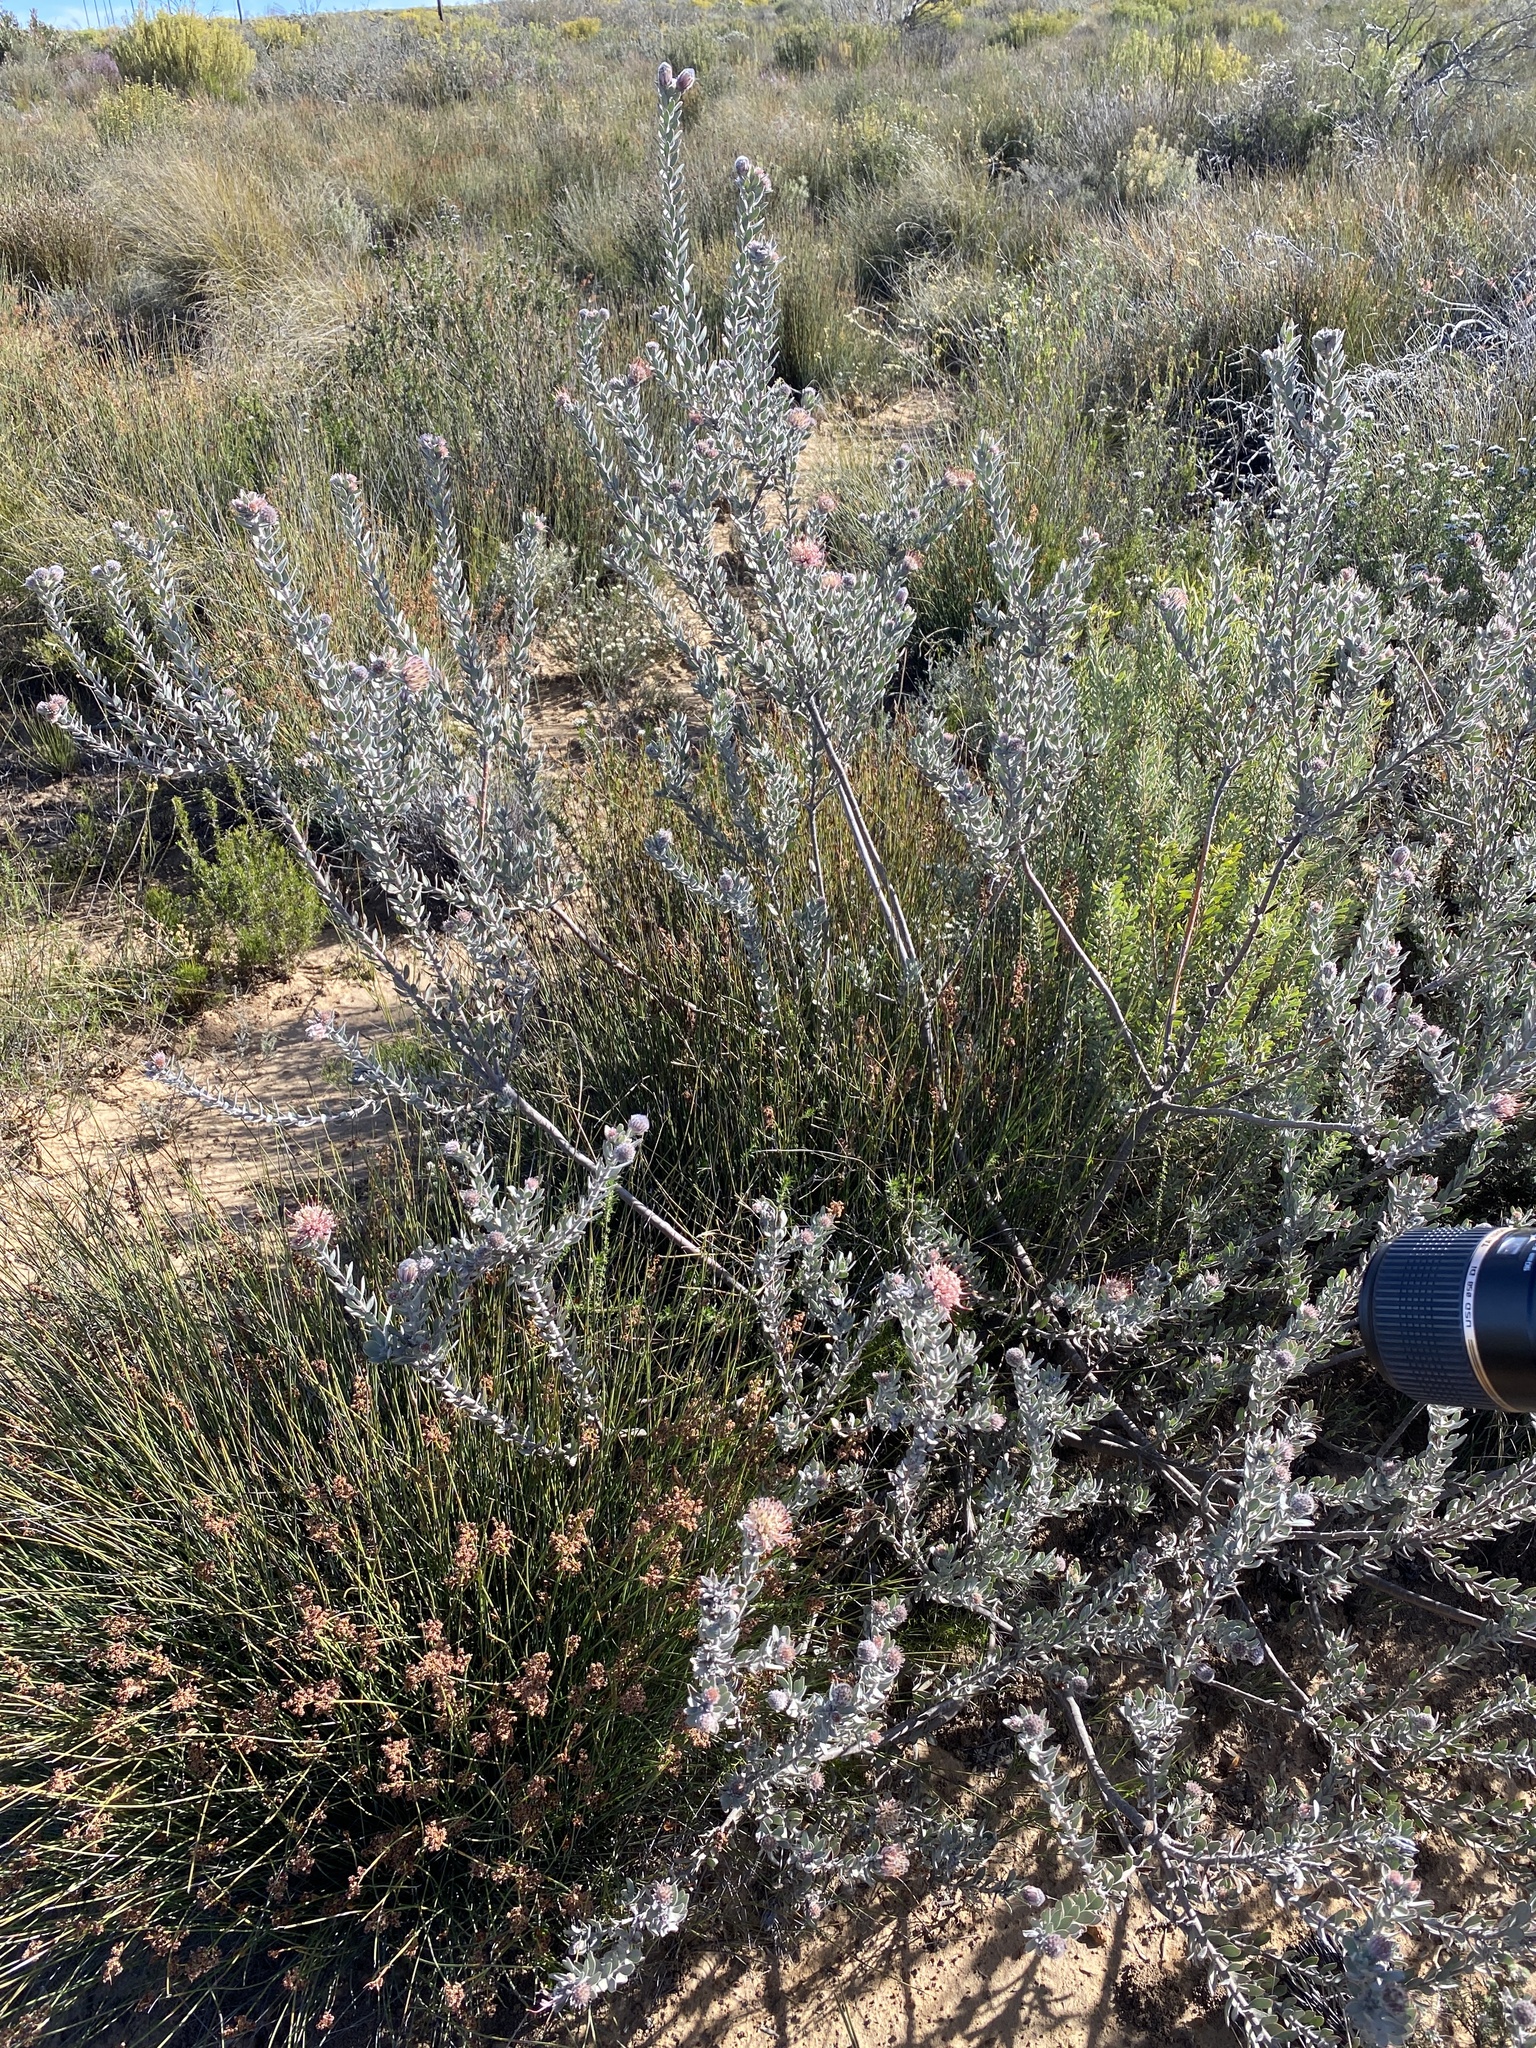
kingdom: Plantae
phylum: Tracheophyta
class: Magnoliopsida
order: Proteales
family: Proteaceae
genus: Leucospermum
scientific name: Leucospermum calligerum
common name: Arid pincushion
